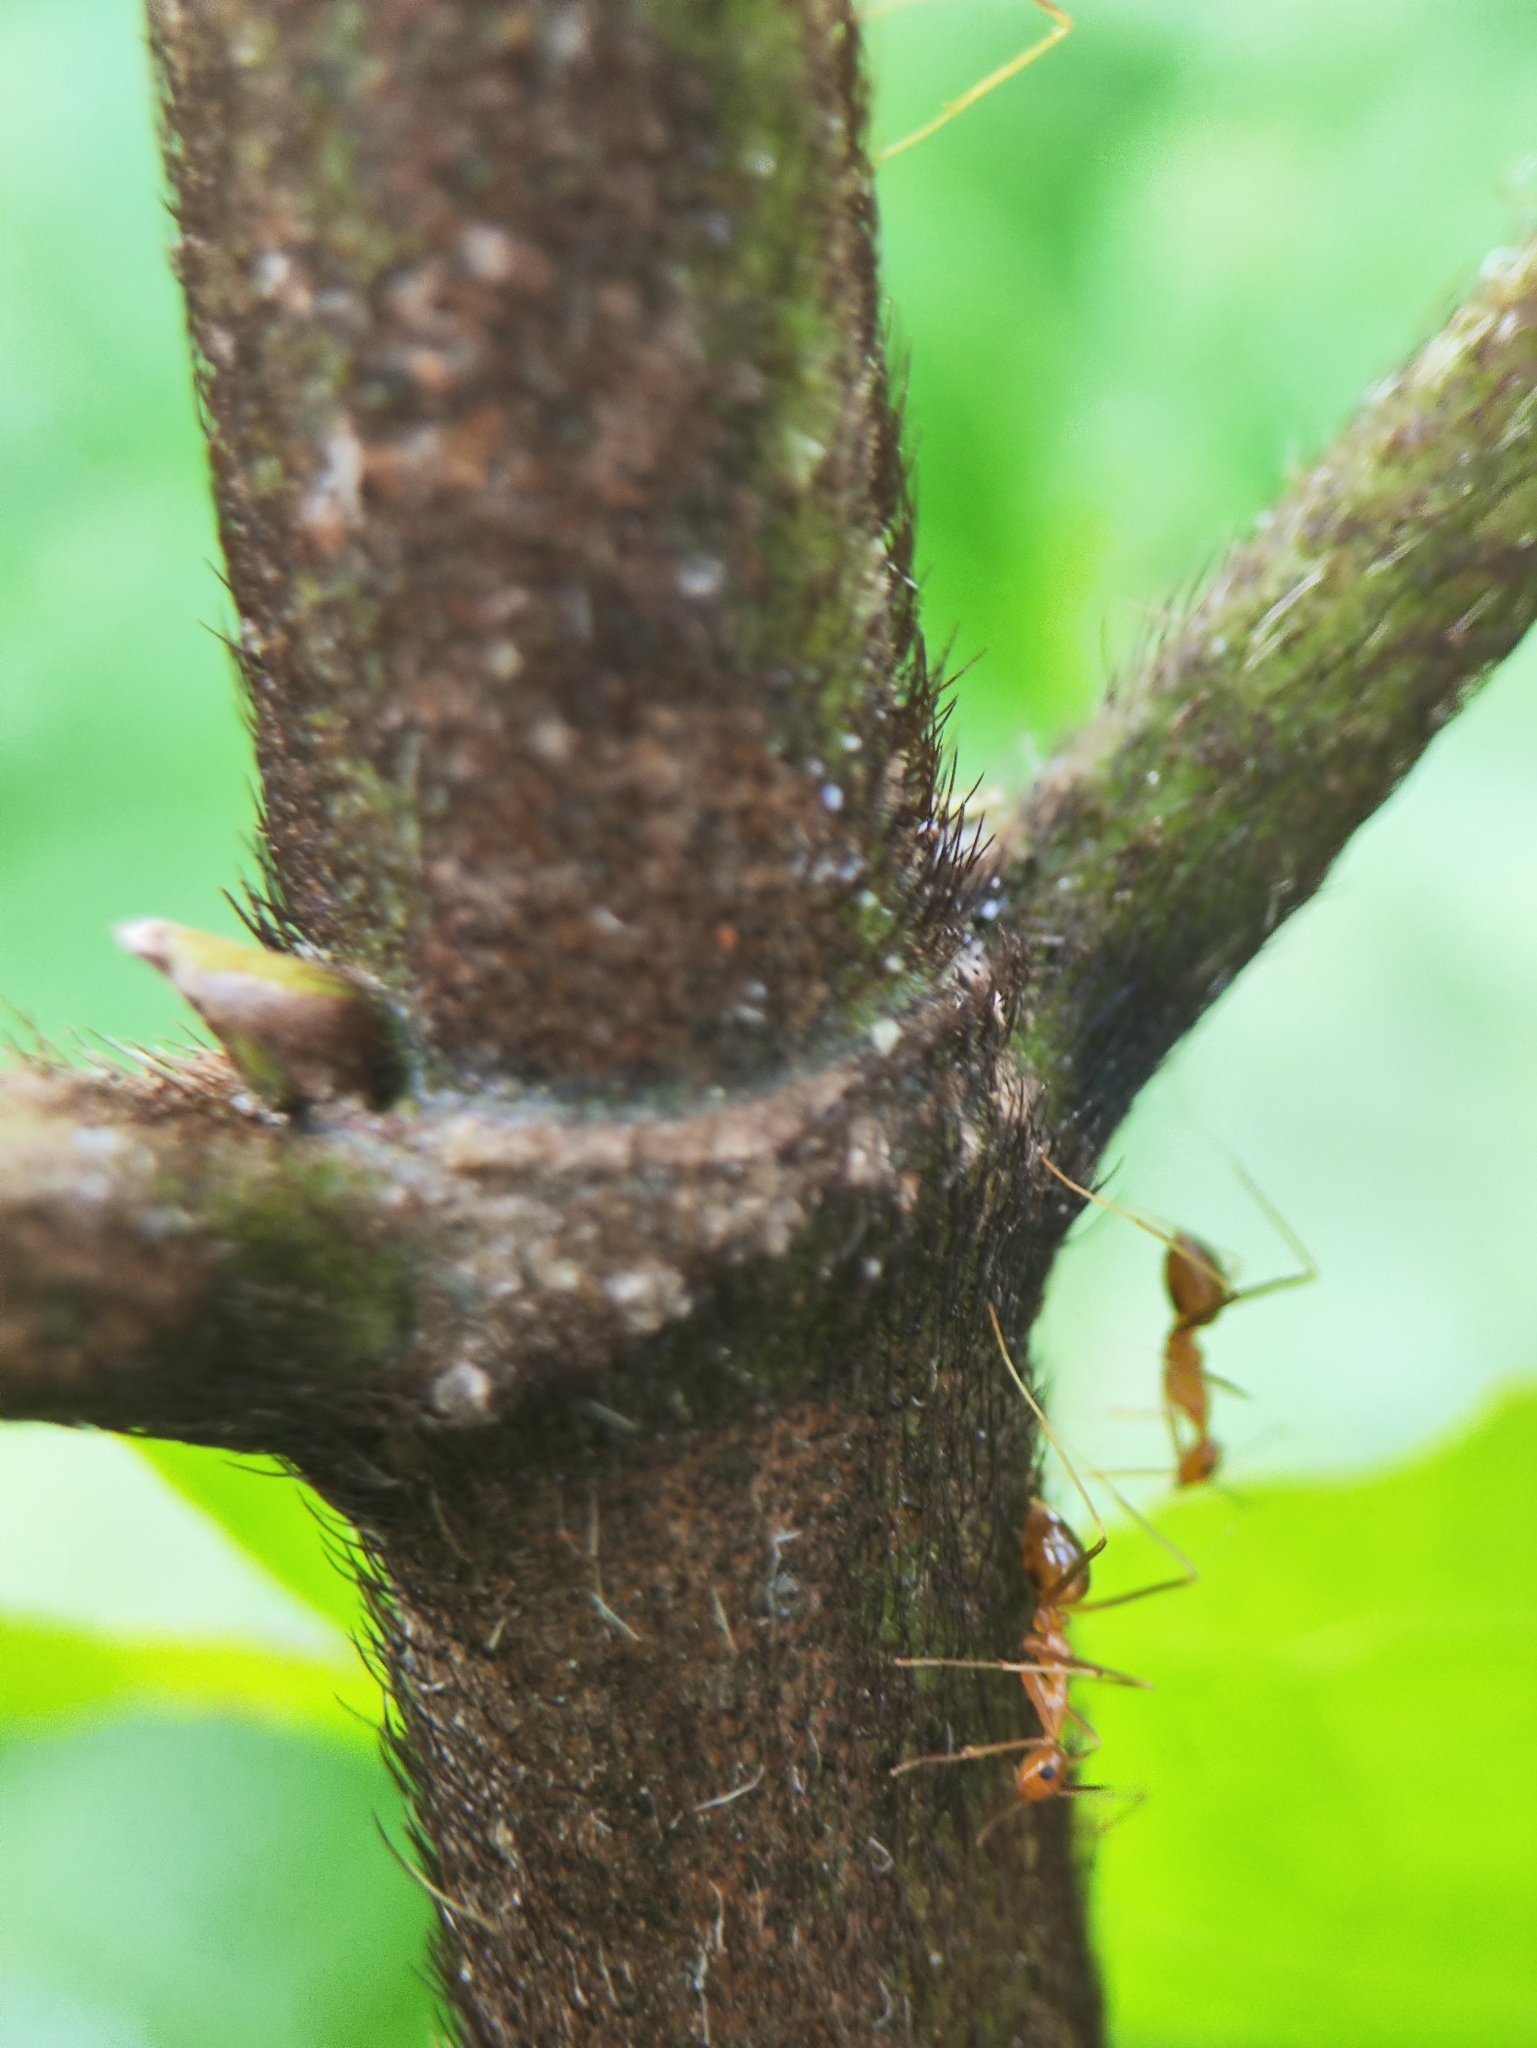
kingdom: Animalia
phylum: Arthropoda
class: Insecta
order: Hymenoptera
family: Formicidae
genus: Anoplolepis
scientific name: Anoplolepis gracilipes
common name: Ant
